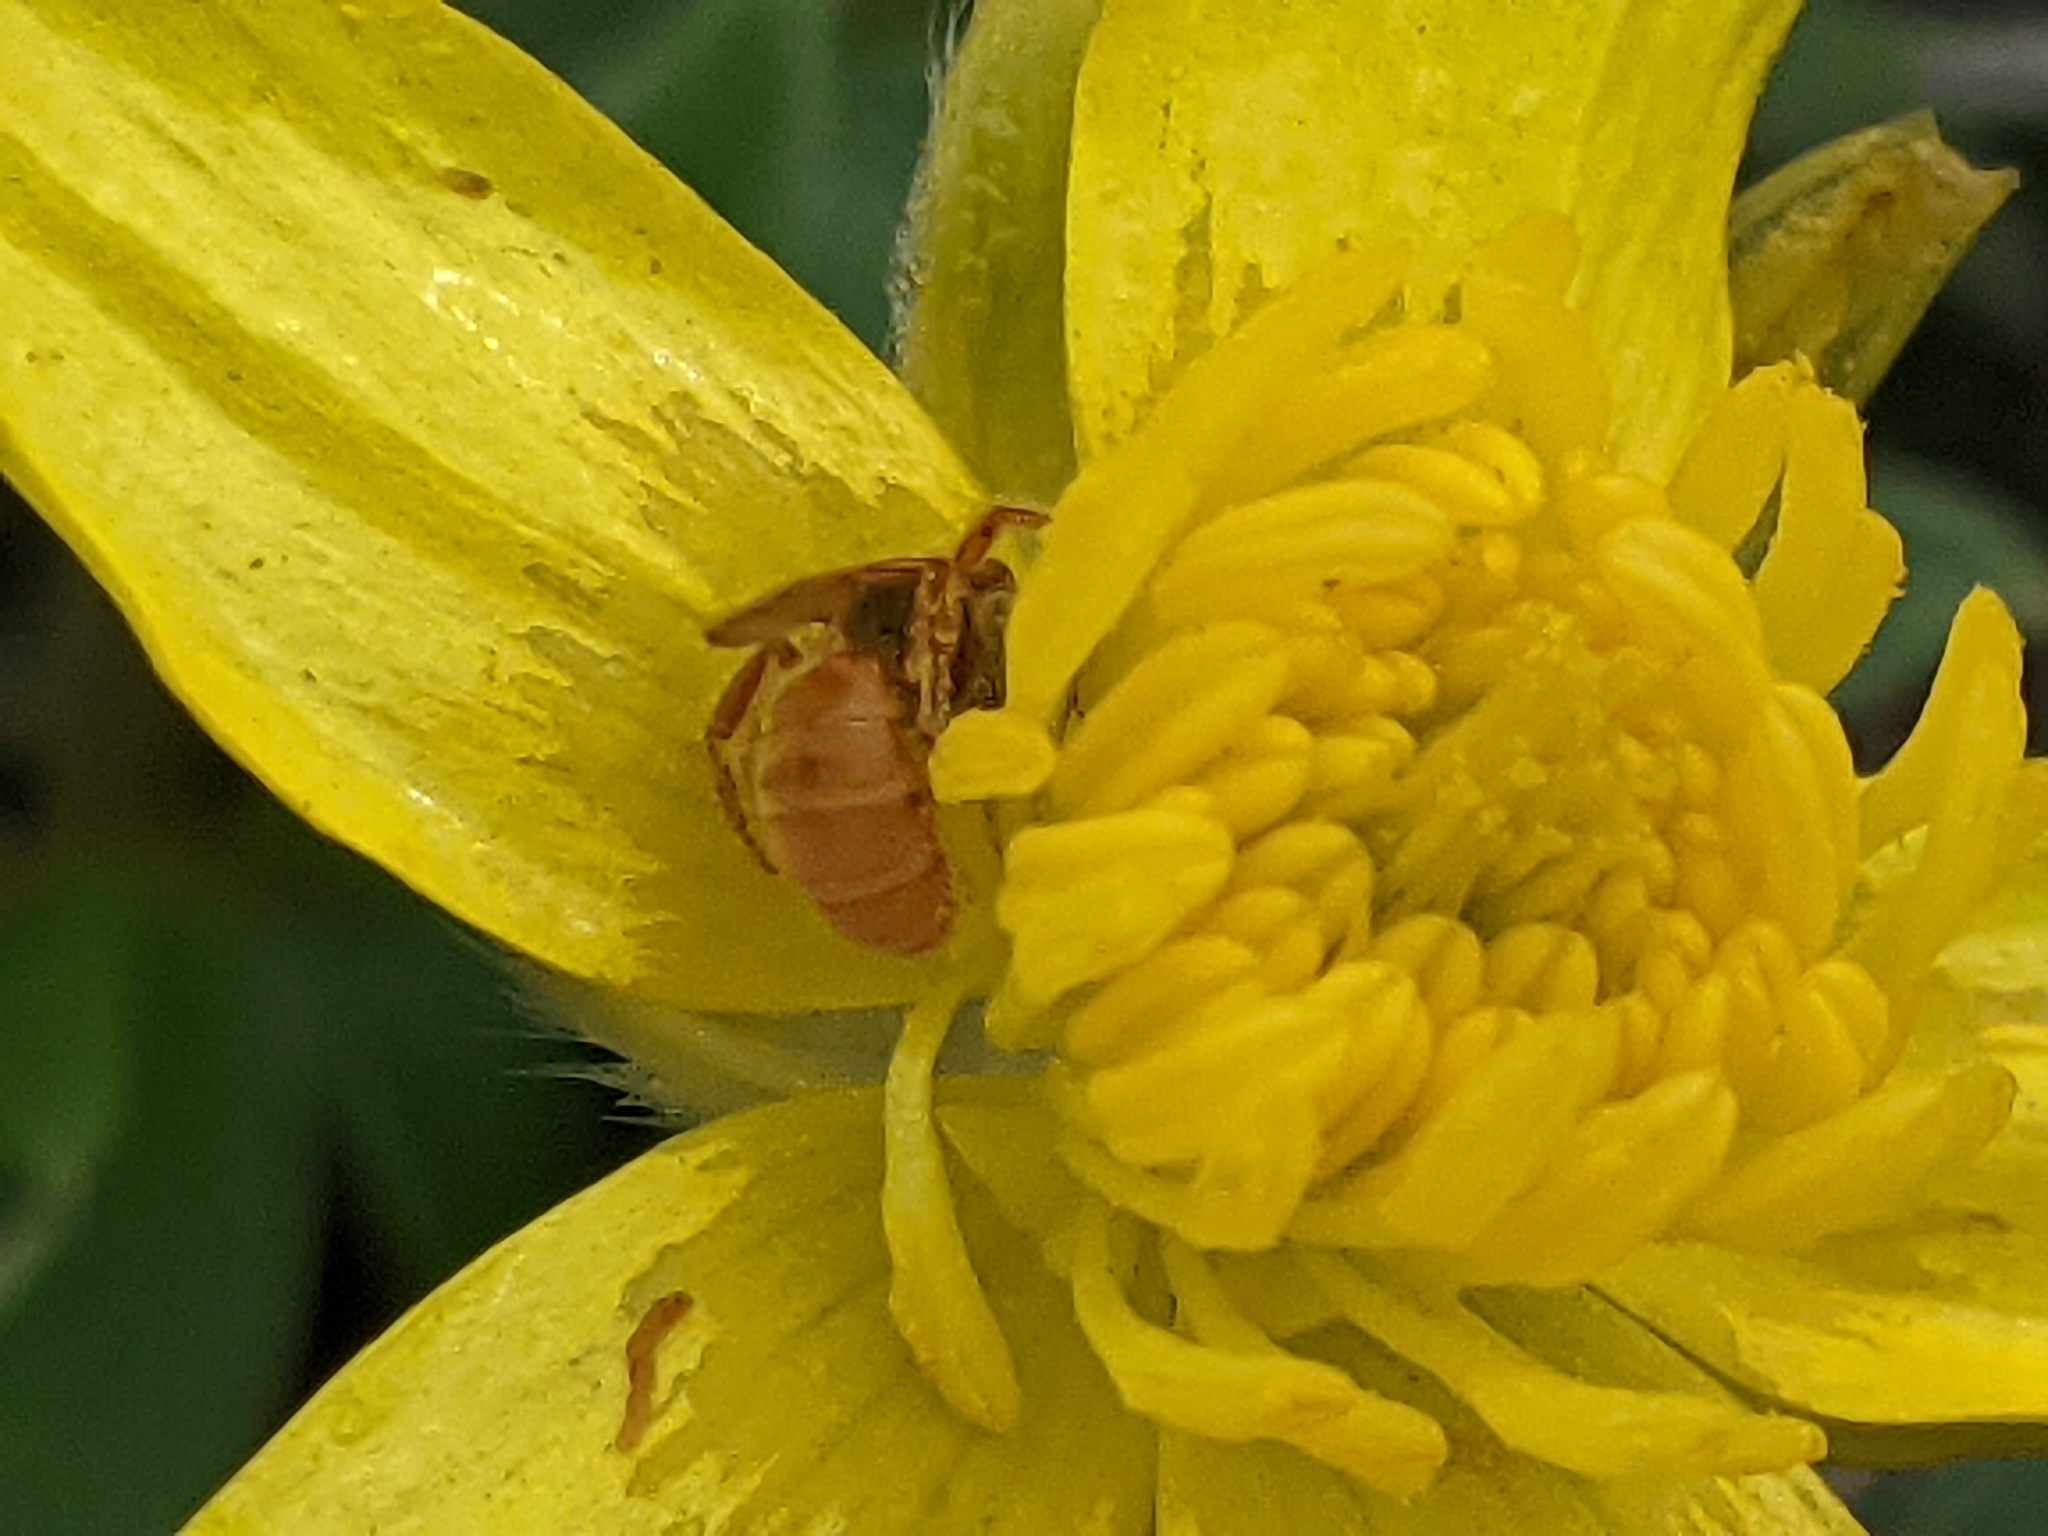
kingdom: Animalia
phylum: Arthropoda
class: Insecta
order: Hymenoptera
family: Halictidae
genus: Lasioglossum
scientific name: Lasioglossum vierecki
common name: Viereck's sweat bee
